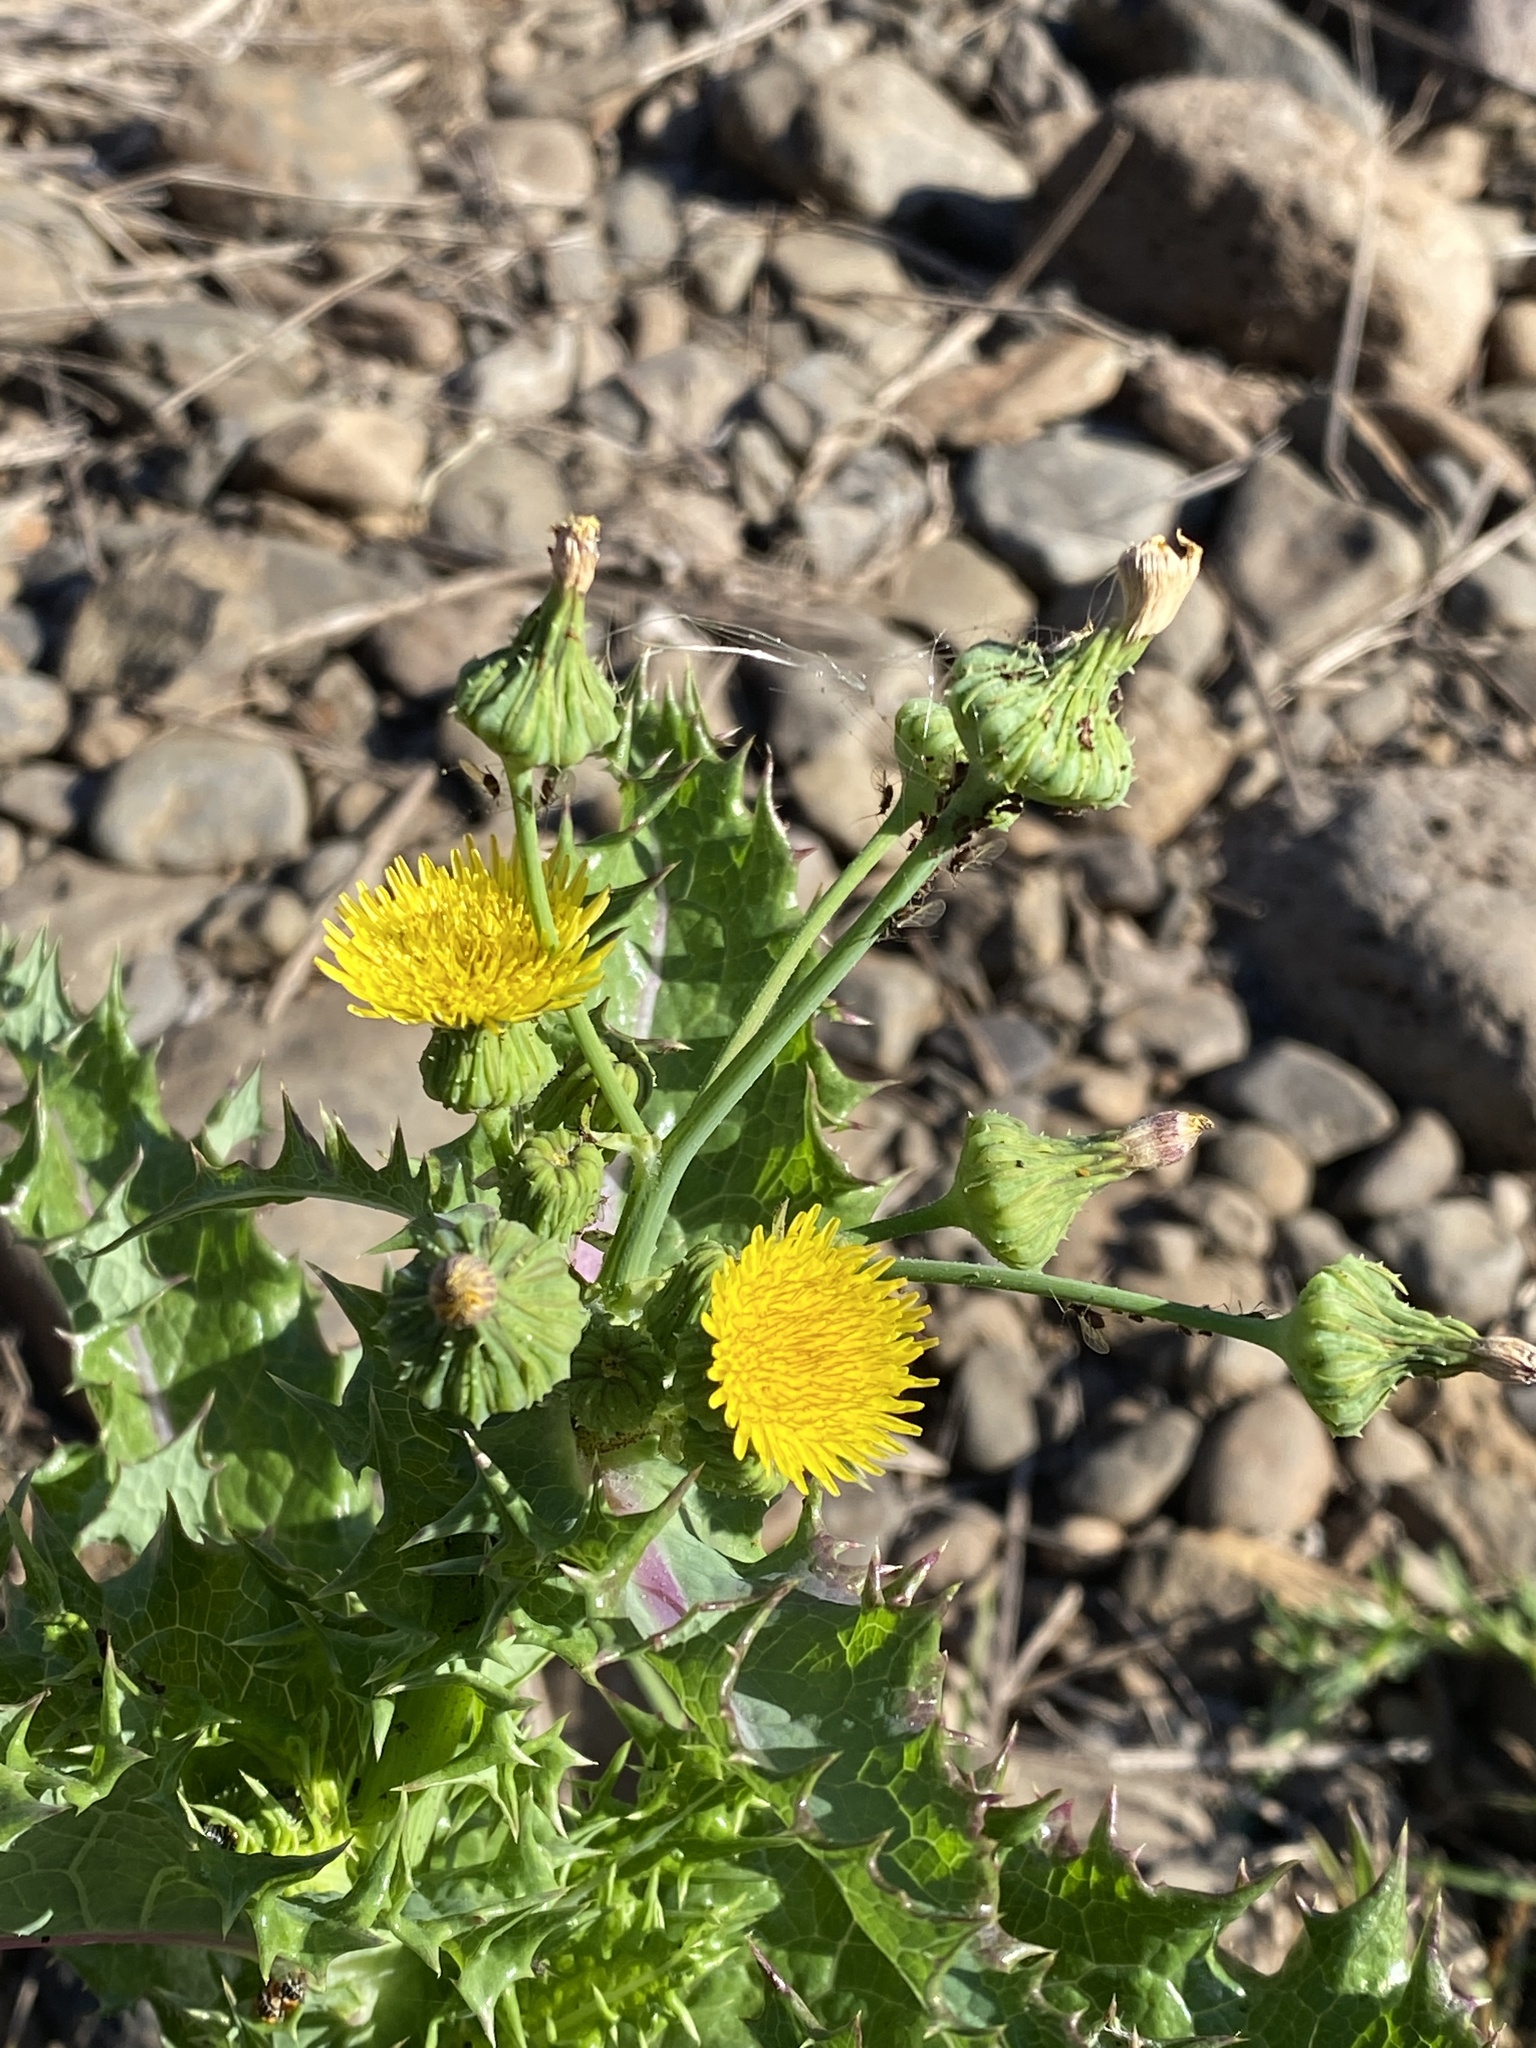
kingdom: Plantae
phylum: Tracheophyta
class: Magnoliopsida
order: Asterales
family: Asteraceae
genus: Sonchus
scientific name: Sonchus asper
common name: Prickly sow-thistle
